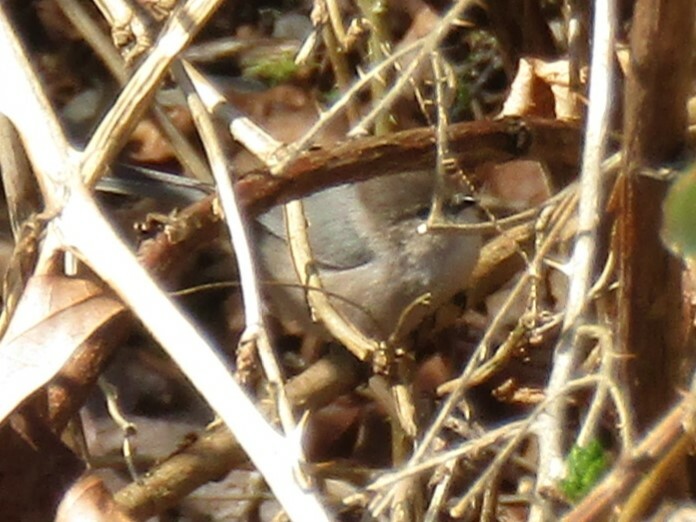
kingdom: Animalia
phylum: Chordata
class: Aves
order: Passeriformes
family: Aegithalidae
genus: Psaltriparus
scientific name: Psaltriparus minimus
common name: American bushtit
